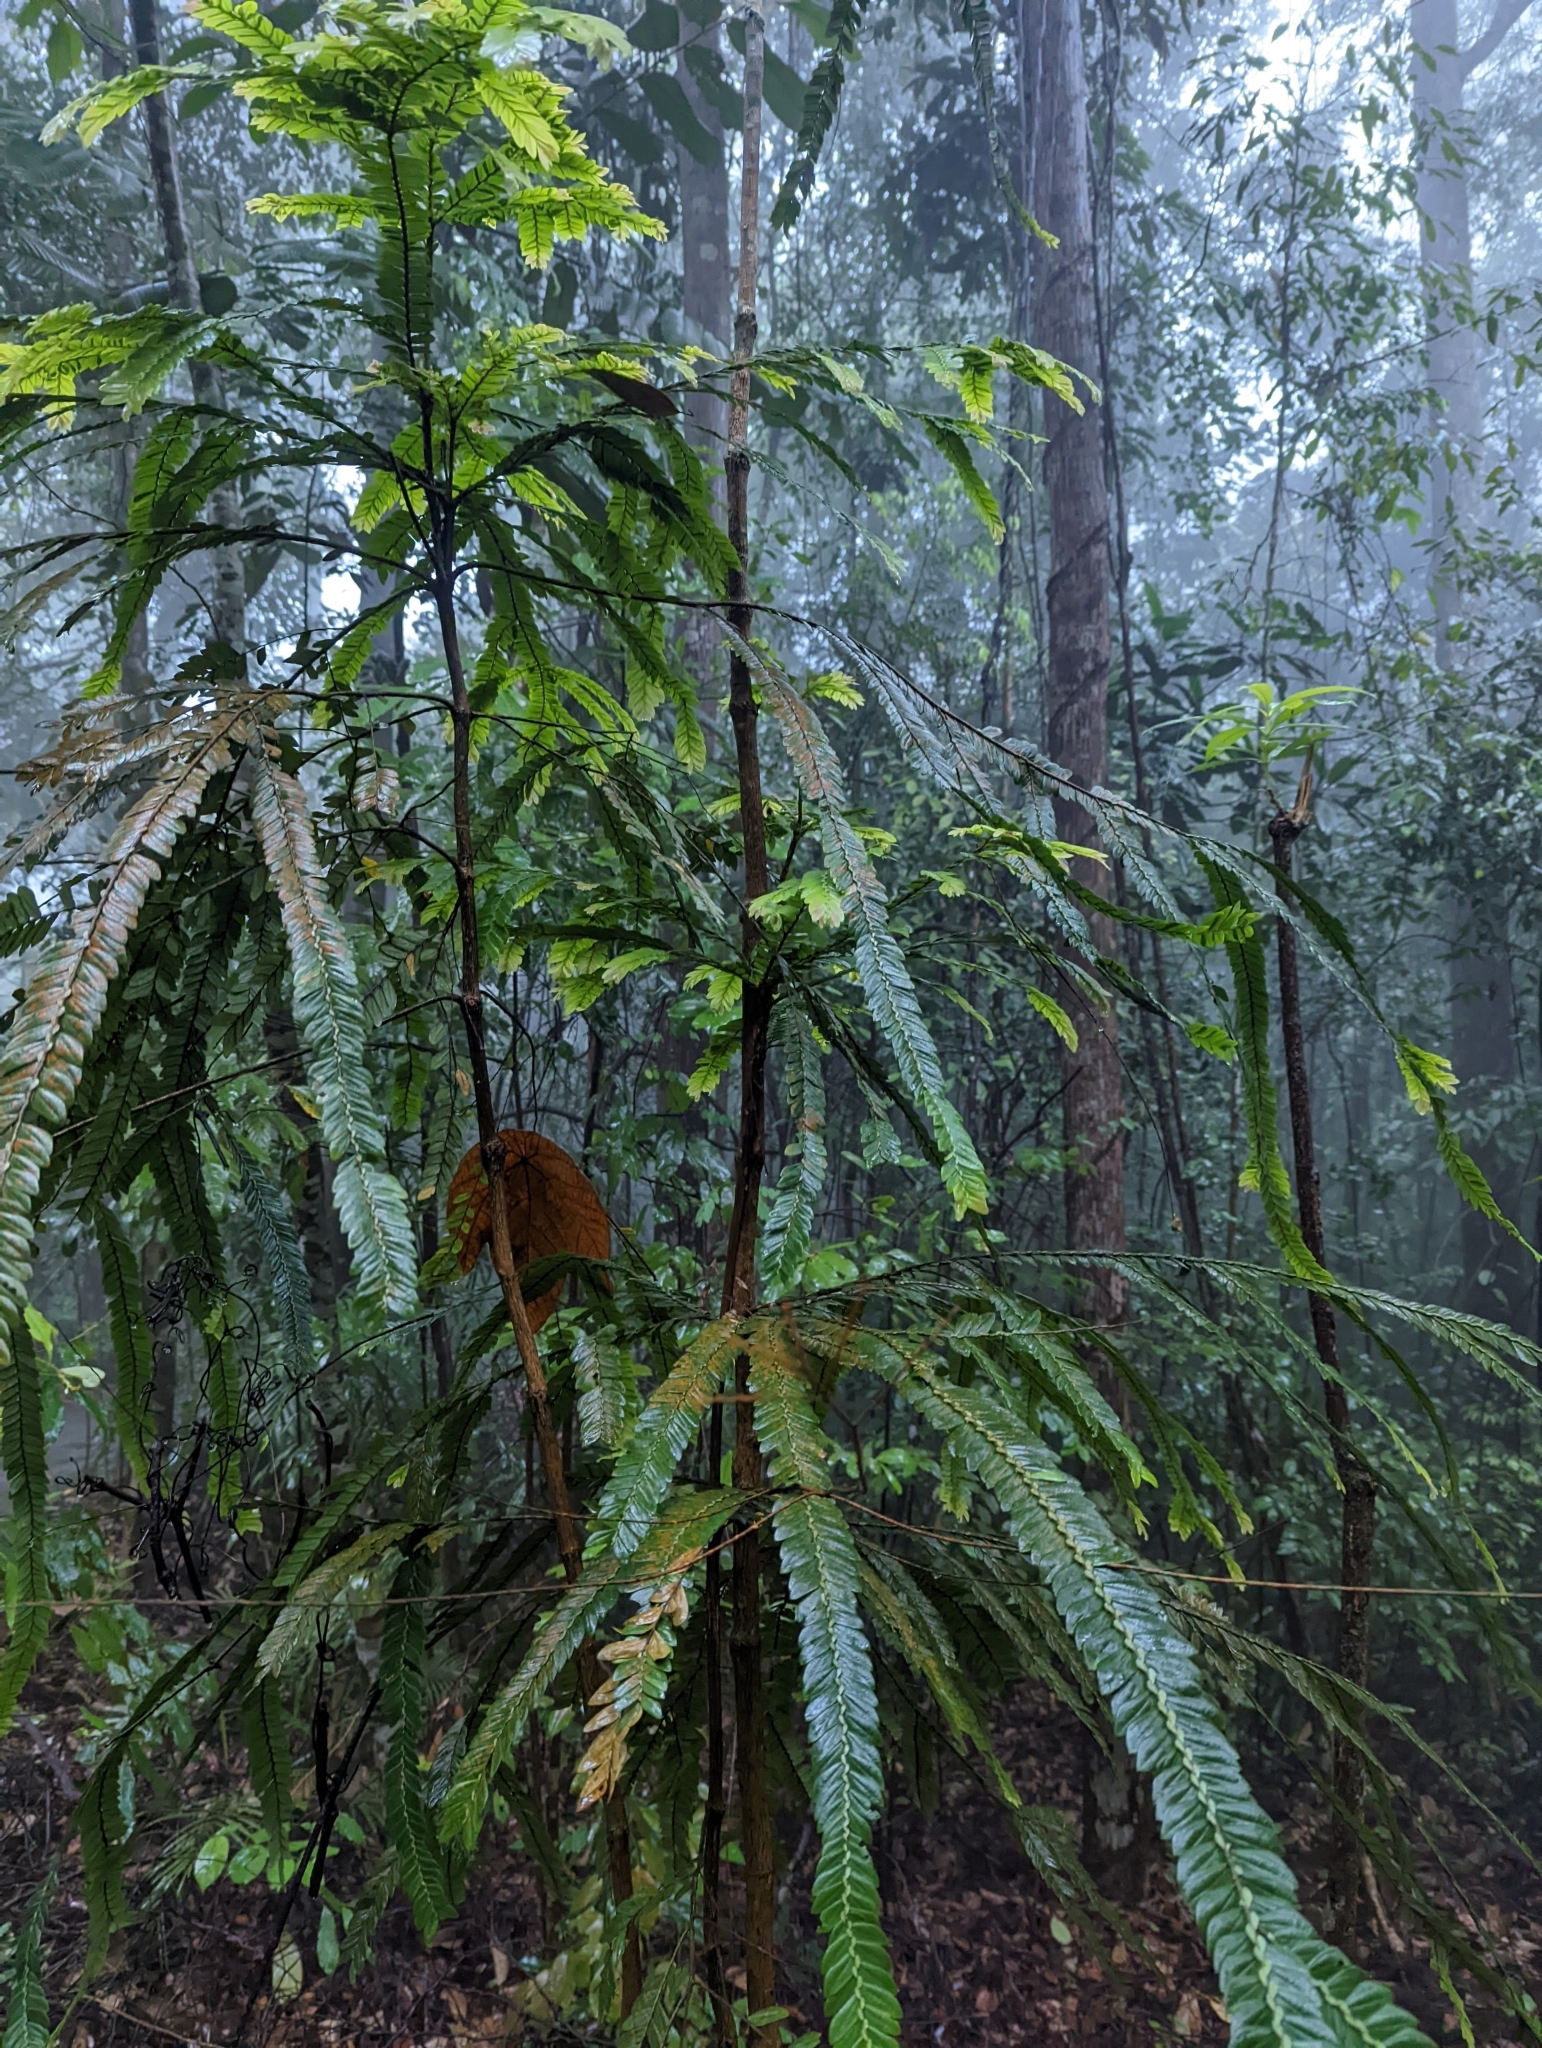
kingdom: Plantae
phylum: Tracheophyta
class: Magnoliopsida
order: Cucurbitales
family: Anisophylleaceae
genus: Anisophyllea
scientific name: Anisophyllea disticha
